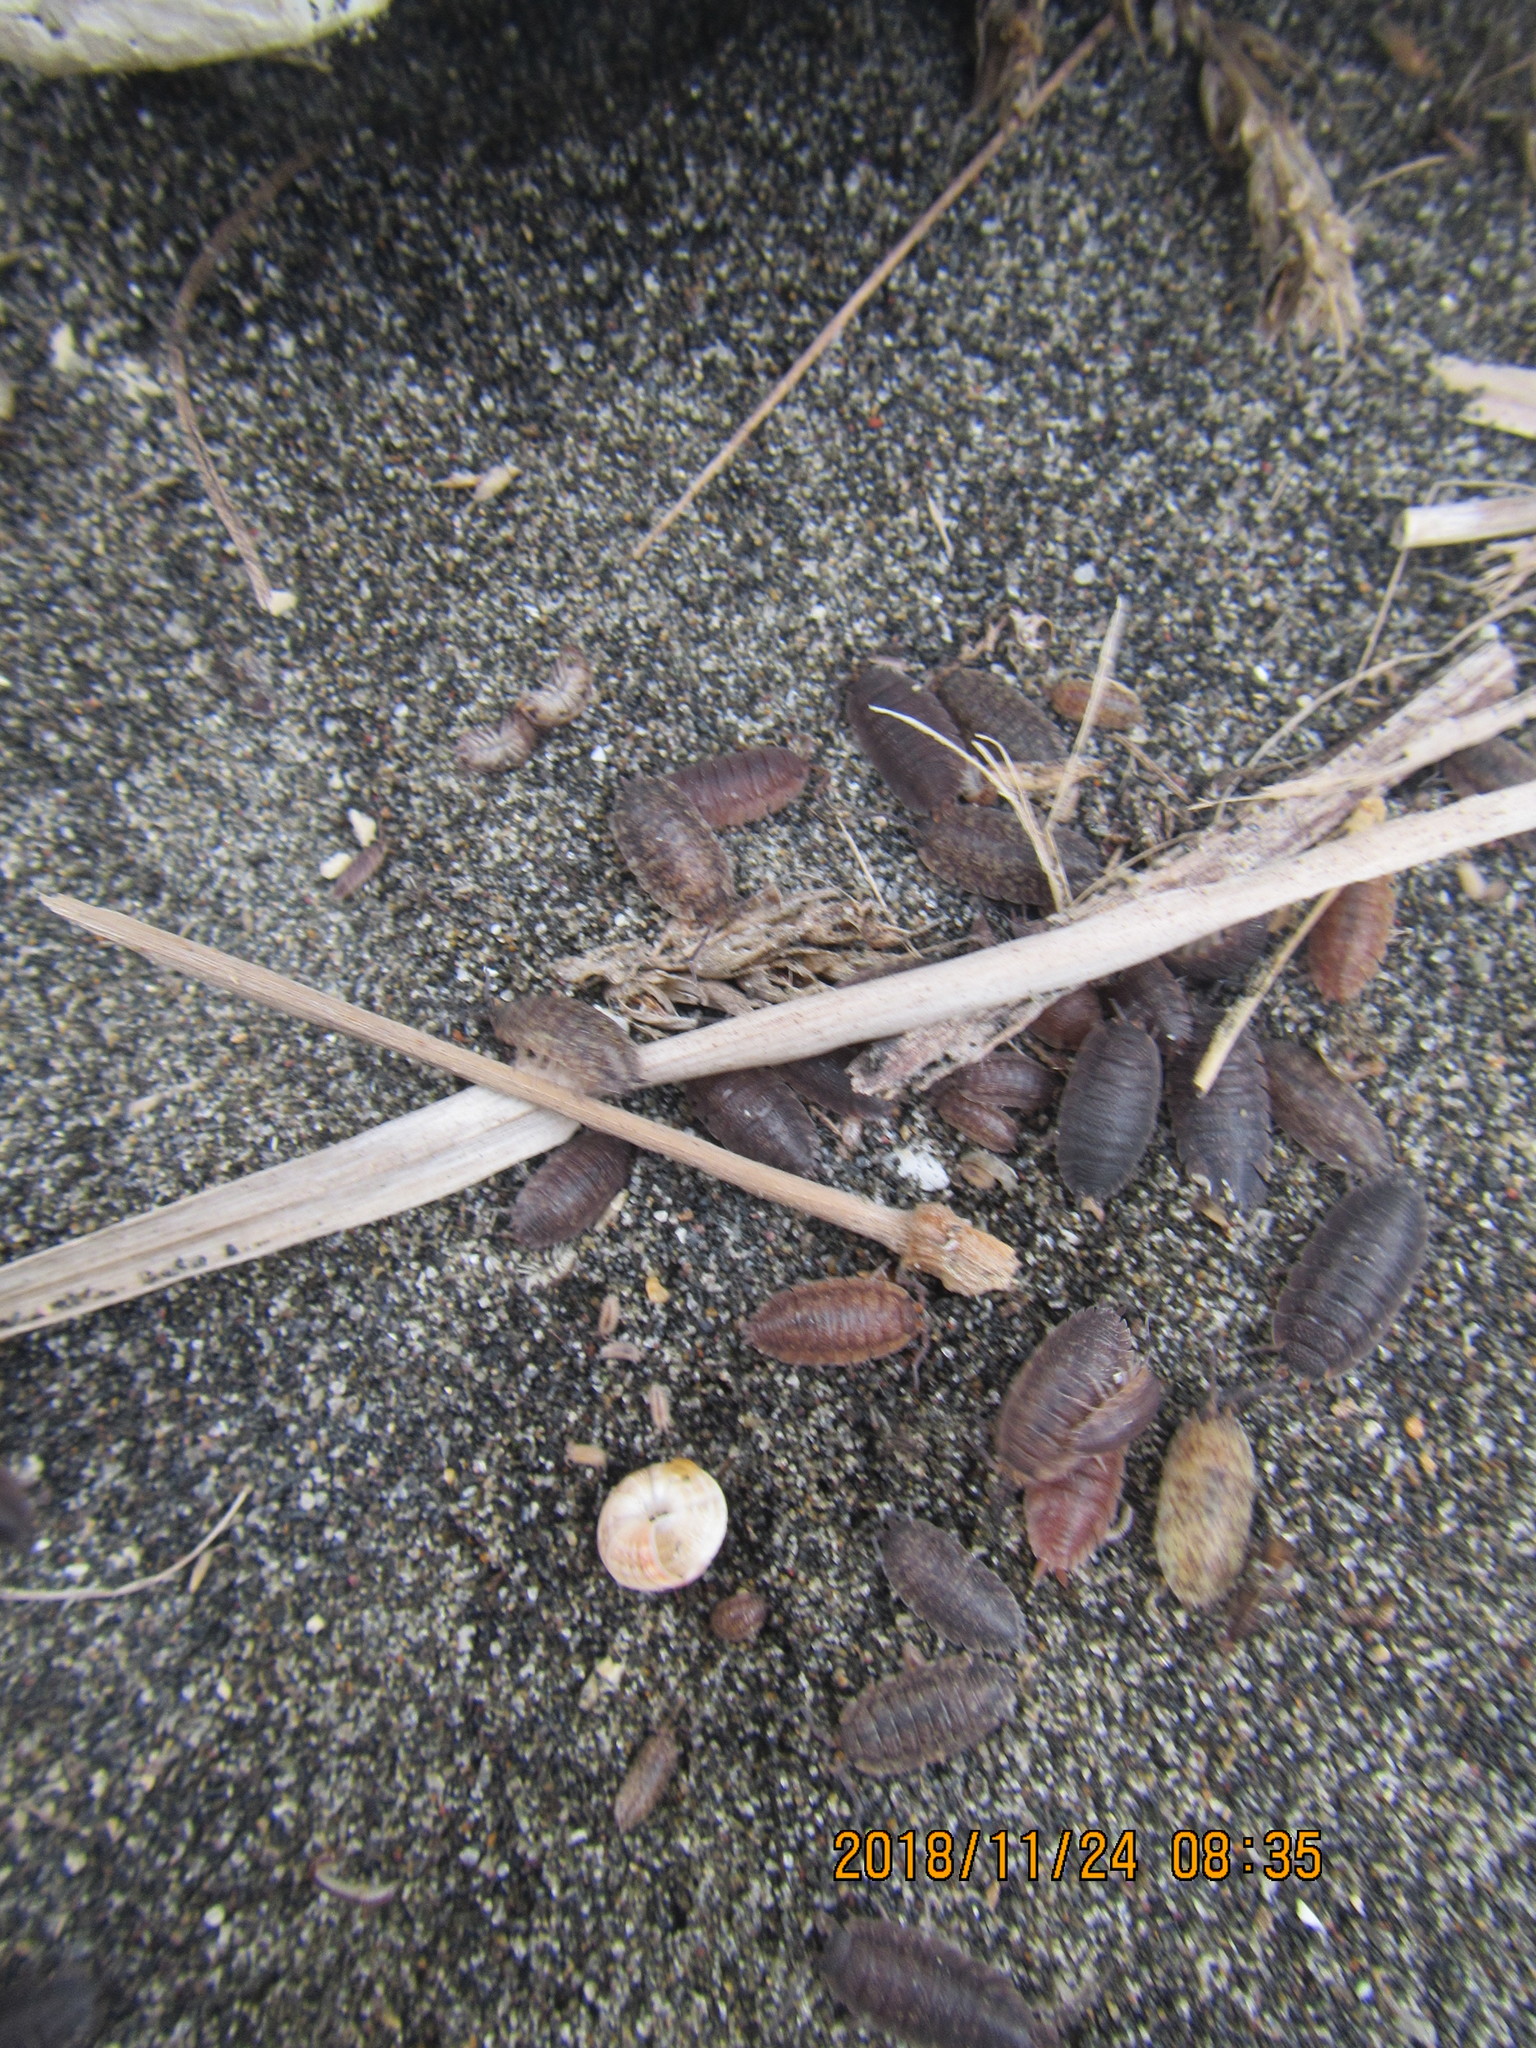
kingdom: Animalia
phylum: Arthropoda
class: Malacostraca
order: Isopoda
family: Porcellionidae
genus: Porcellio
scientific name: Porcellio scaber
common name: Common rough woodlouse
